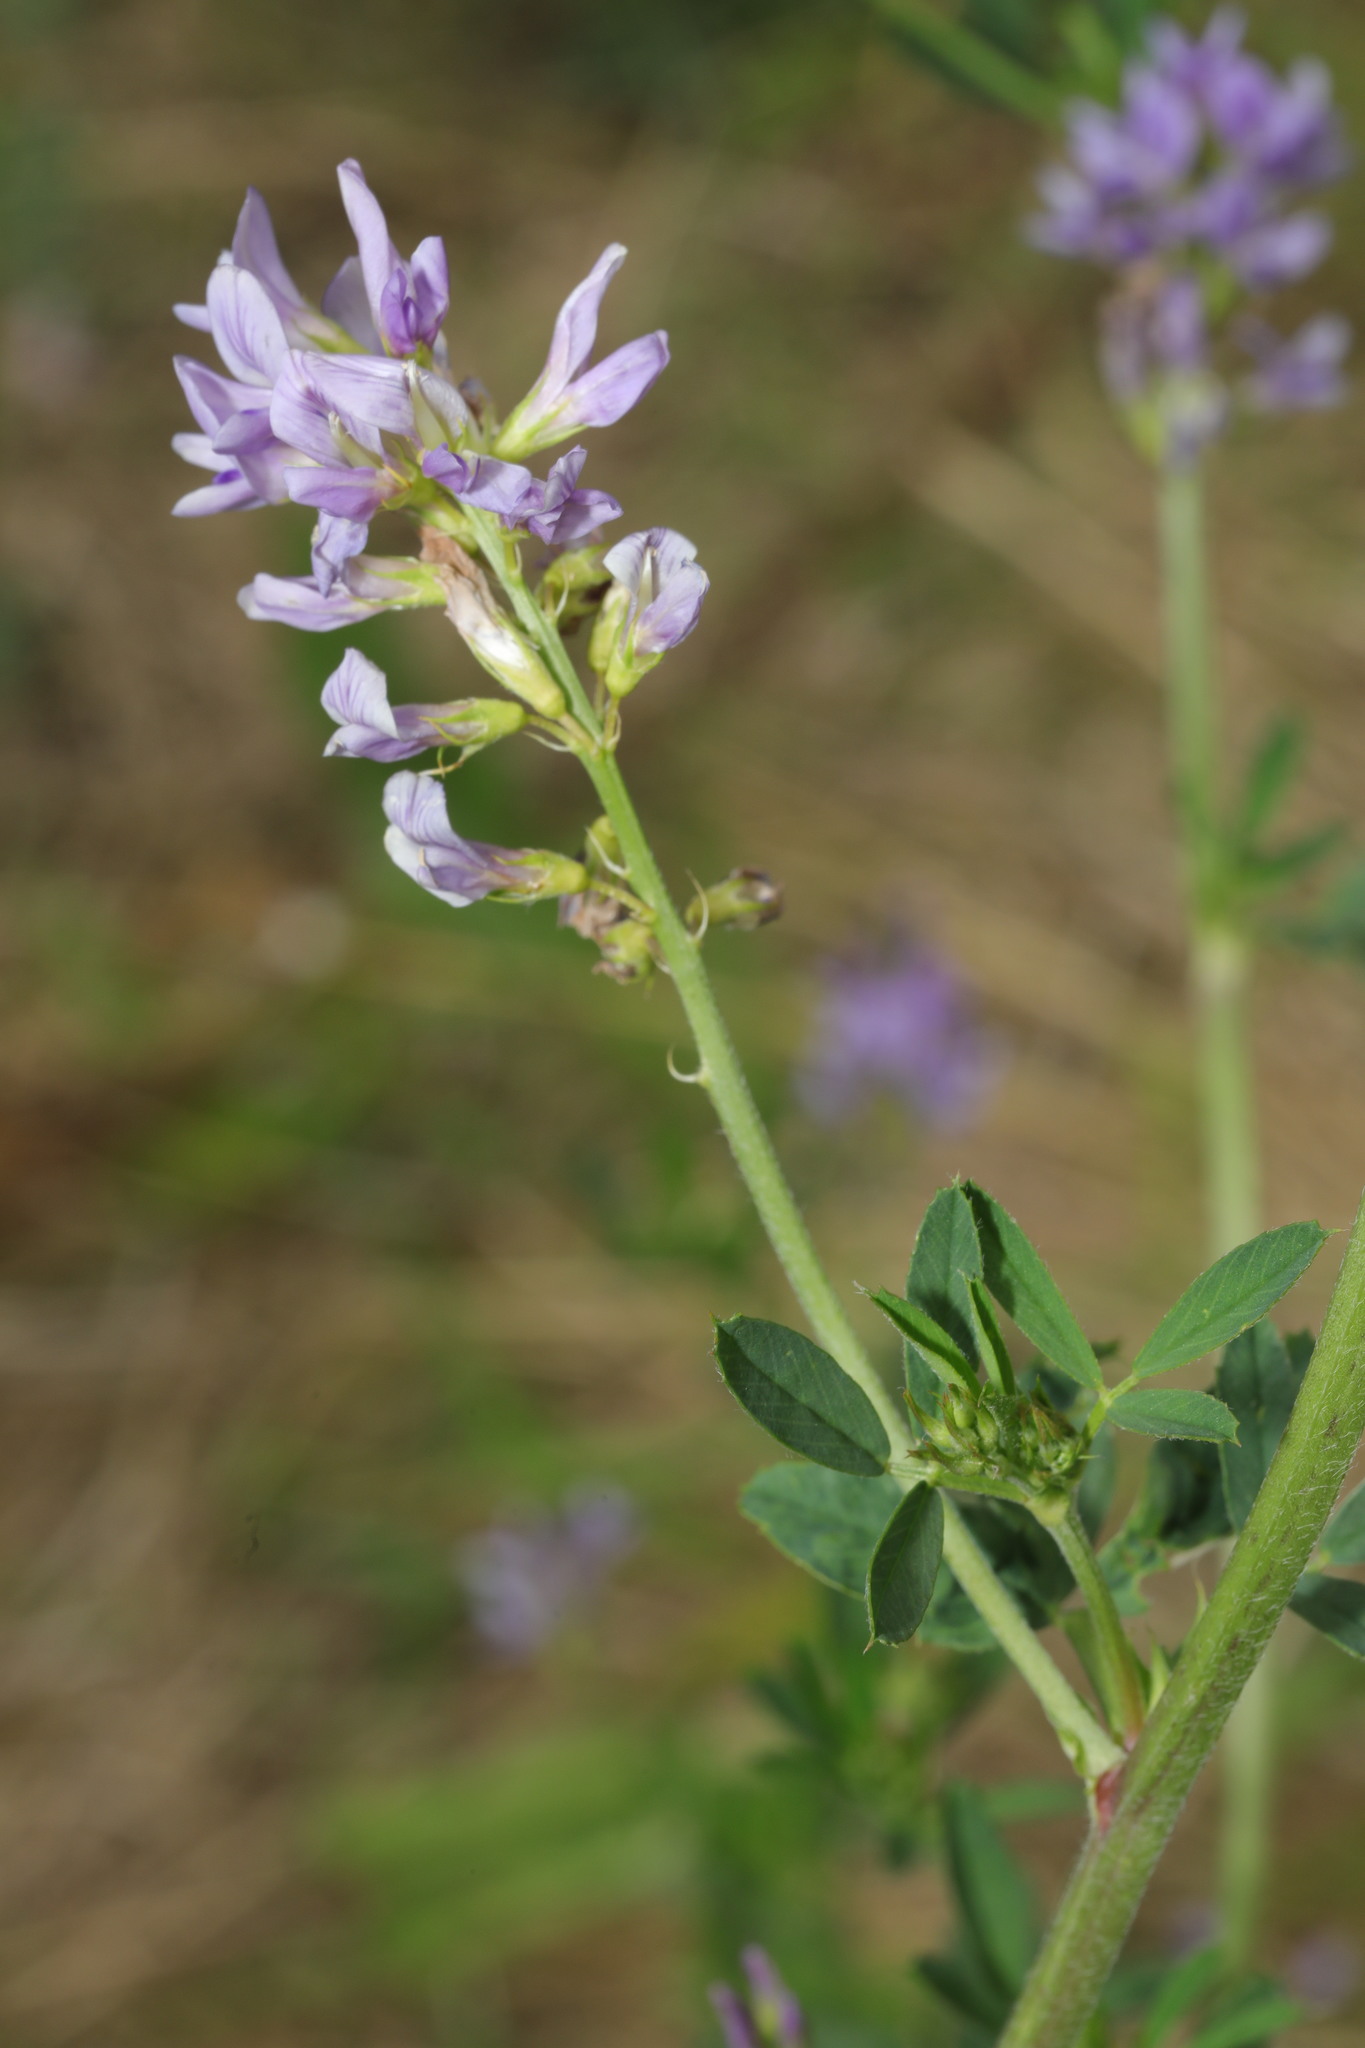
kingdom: Plantae
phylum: Tracheophyta
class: Magnoliopsida
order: Fabales
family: Fabaceae
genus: Medicago
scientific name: Medicago sativa
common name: Alfalfa
